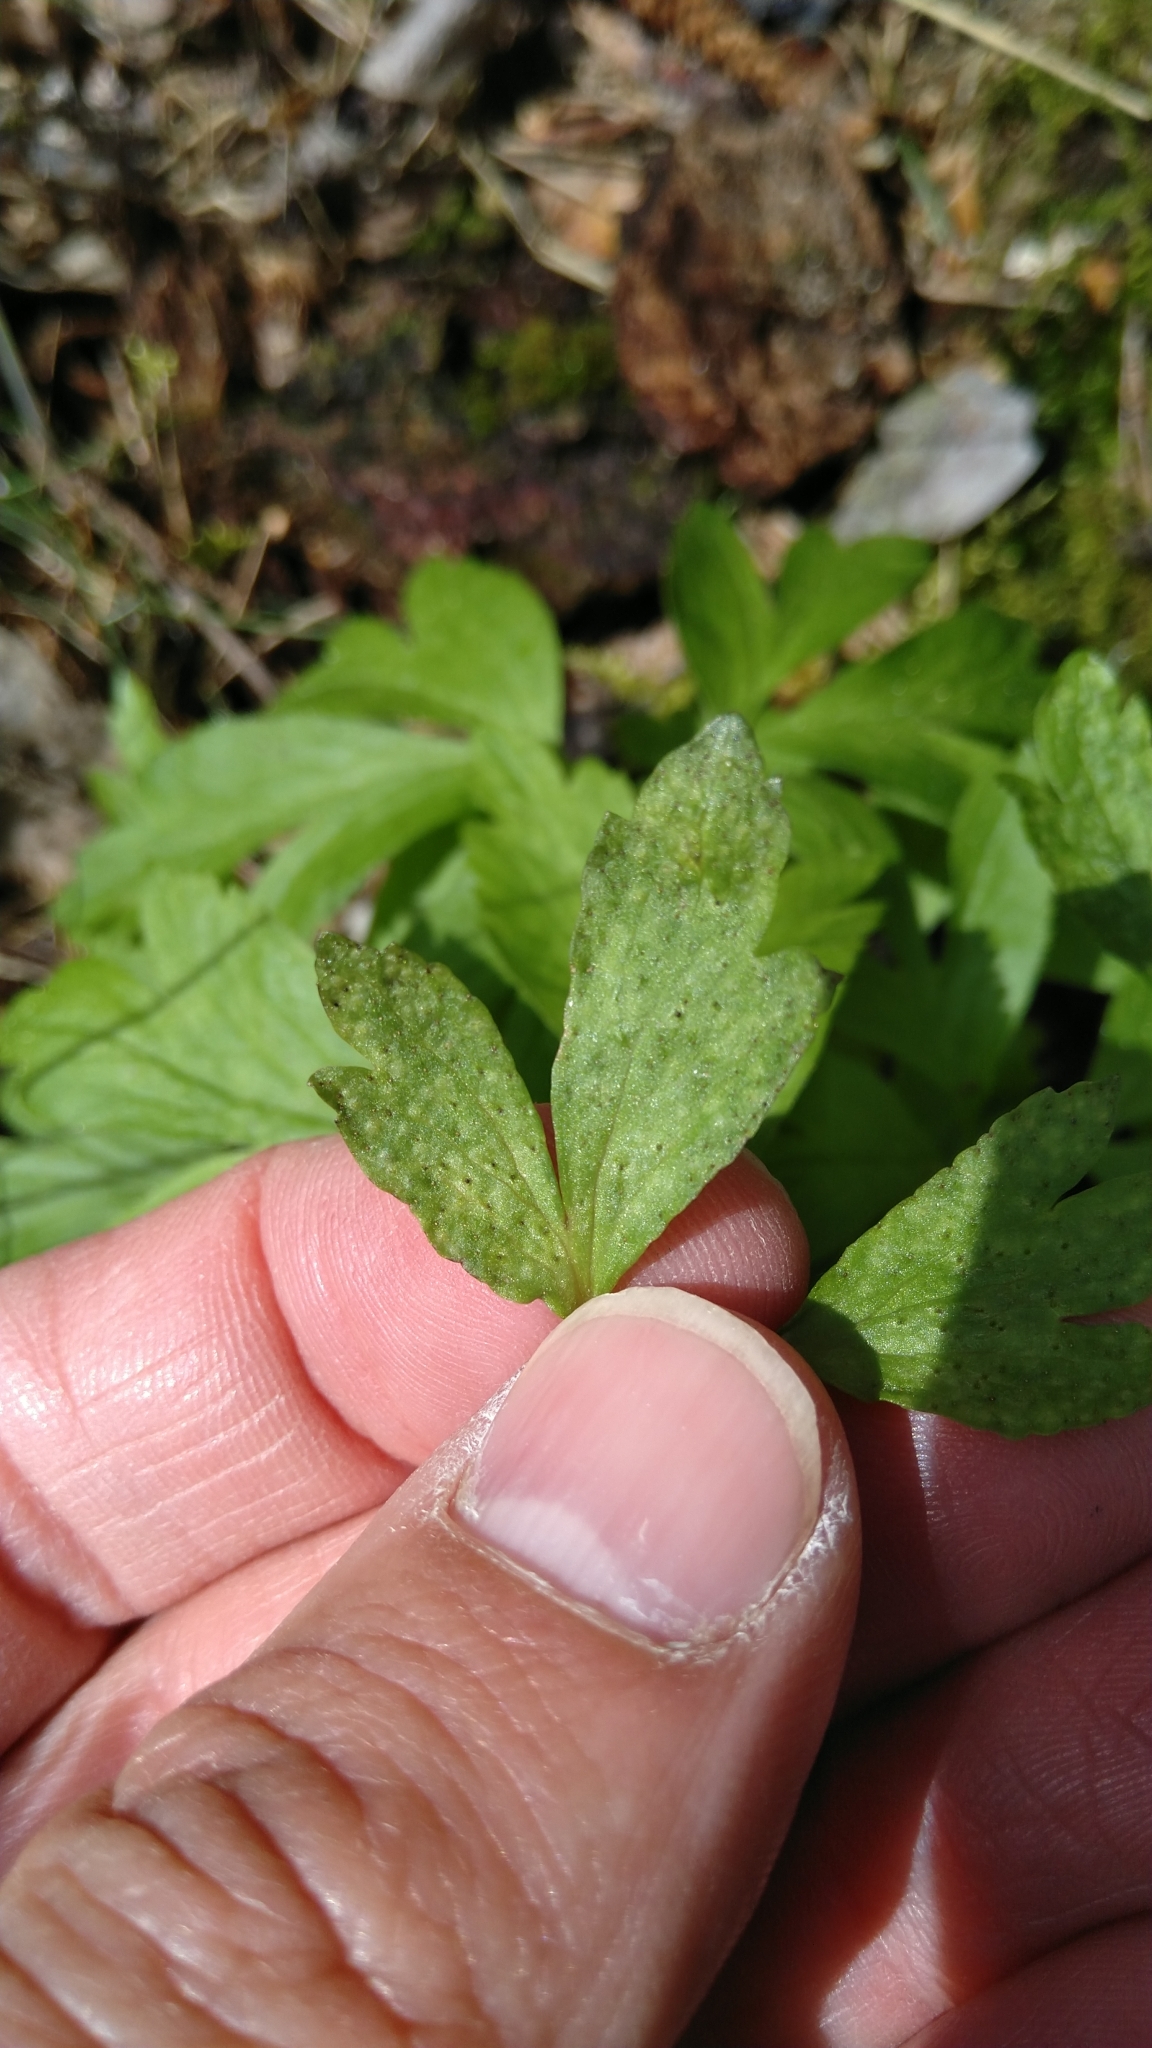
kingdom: Fungi
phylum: Basidiomycota
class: Pucciniomycetes
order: Pucciniales
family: Ochropsoraceae
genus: Ochropsora
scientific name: Ochropsora ariae
